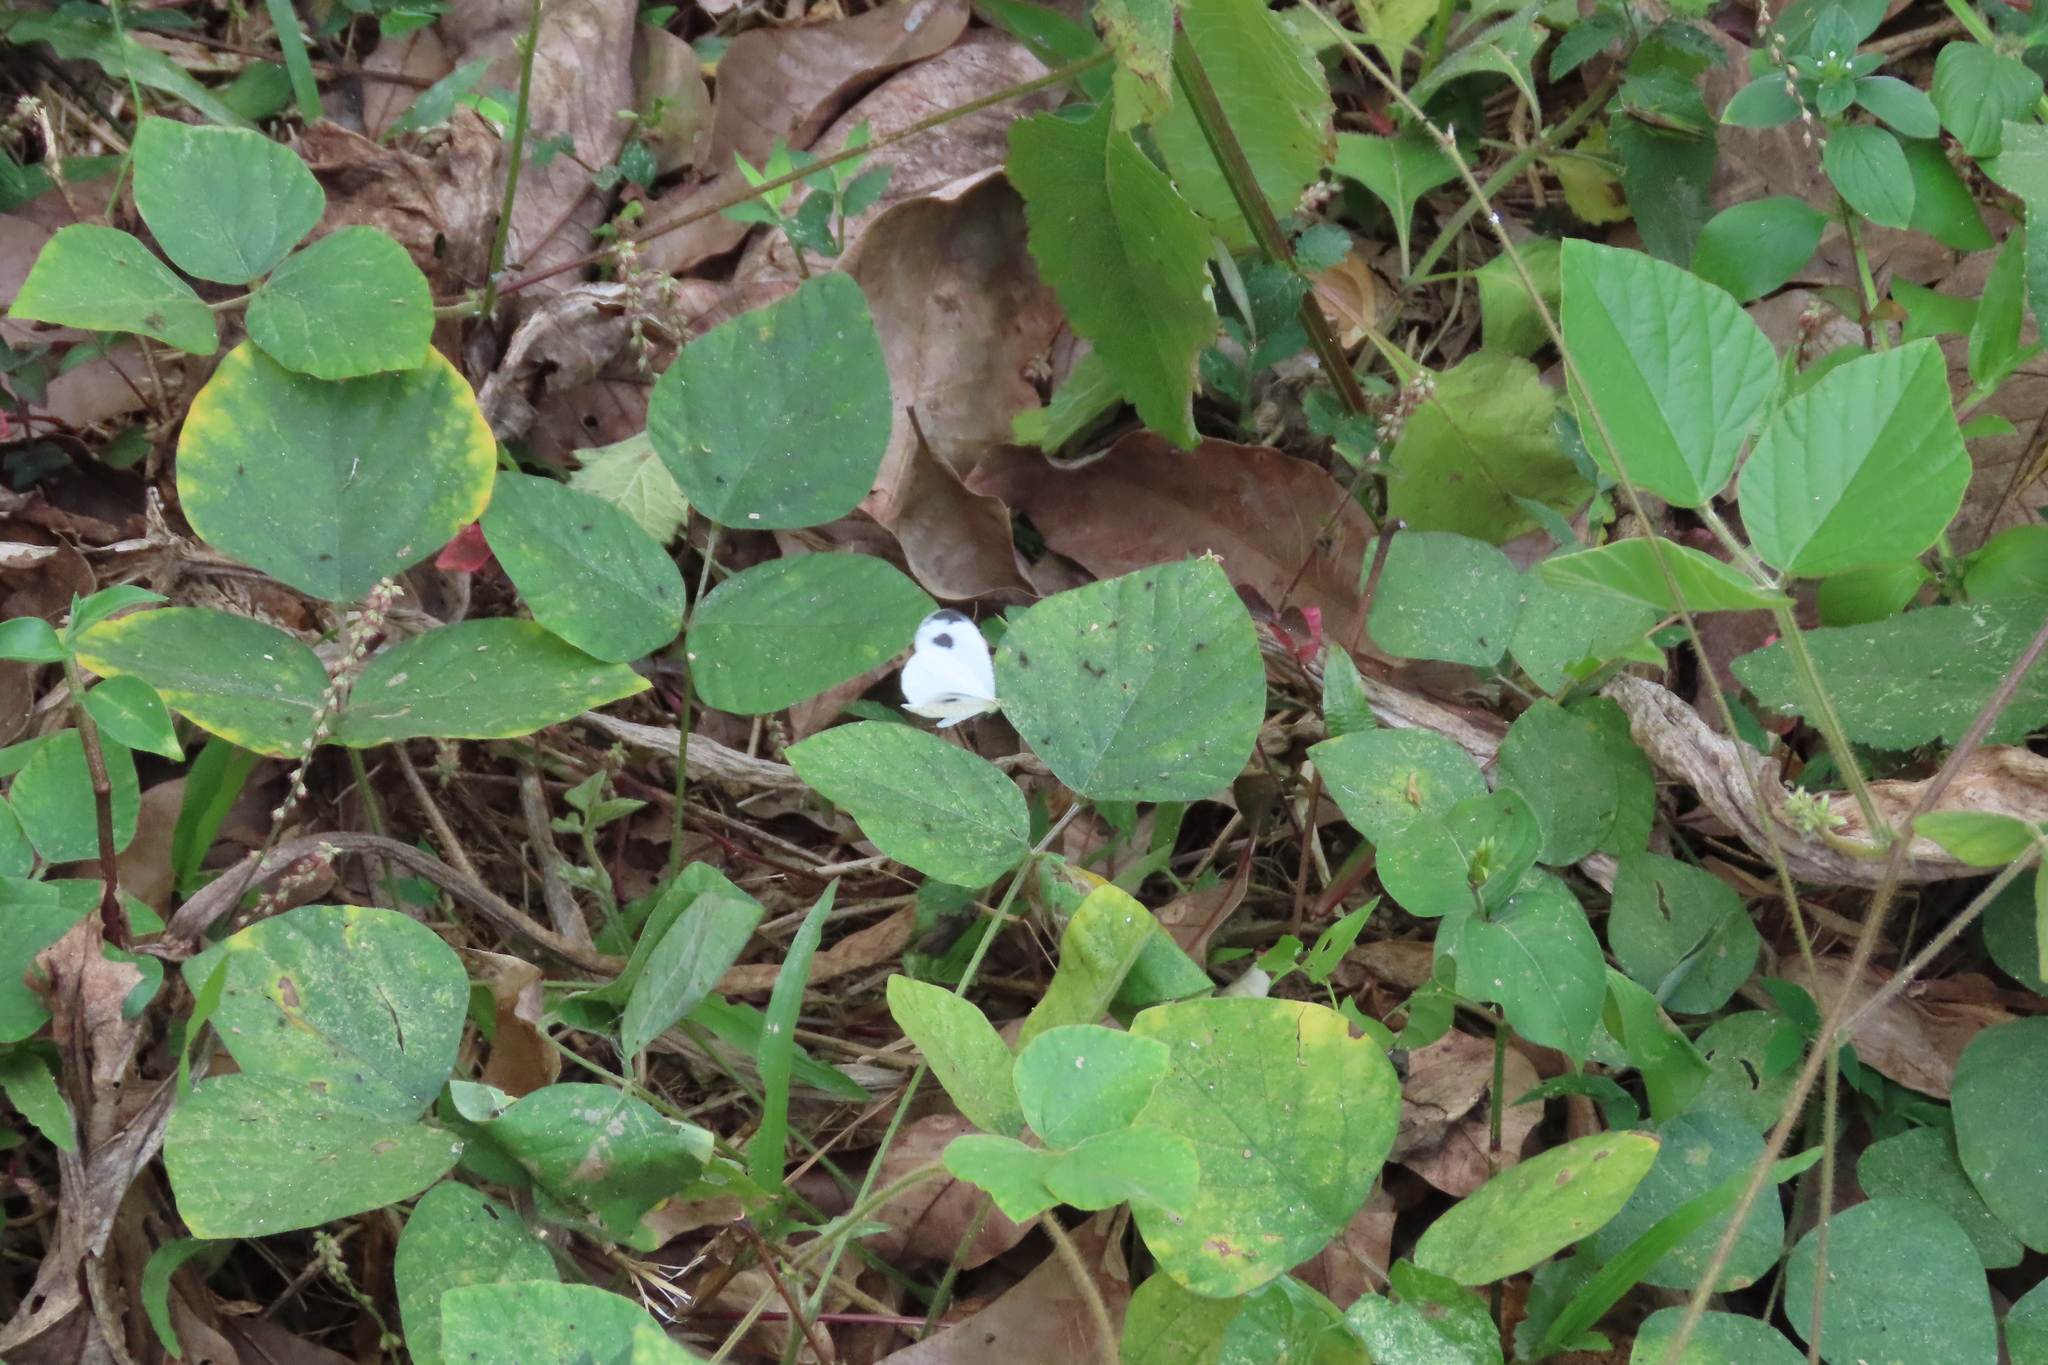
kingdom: Animalia
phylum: Arthropoda
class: Insecta
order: Lepidoptera
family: Pieridae
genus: Leptosia
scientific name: Leptosia nina
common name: Psyche
